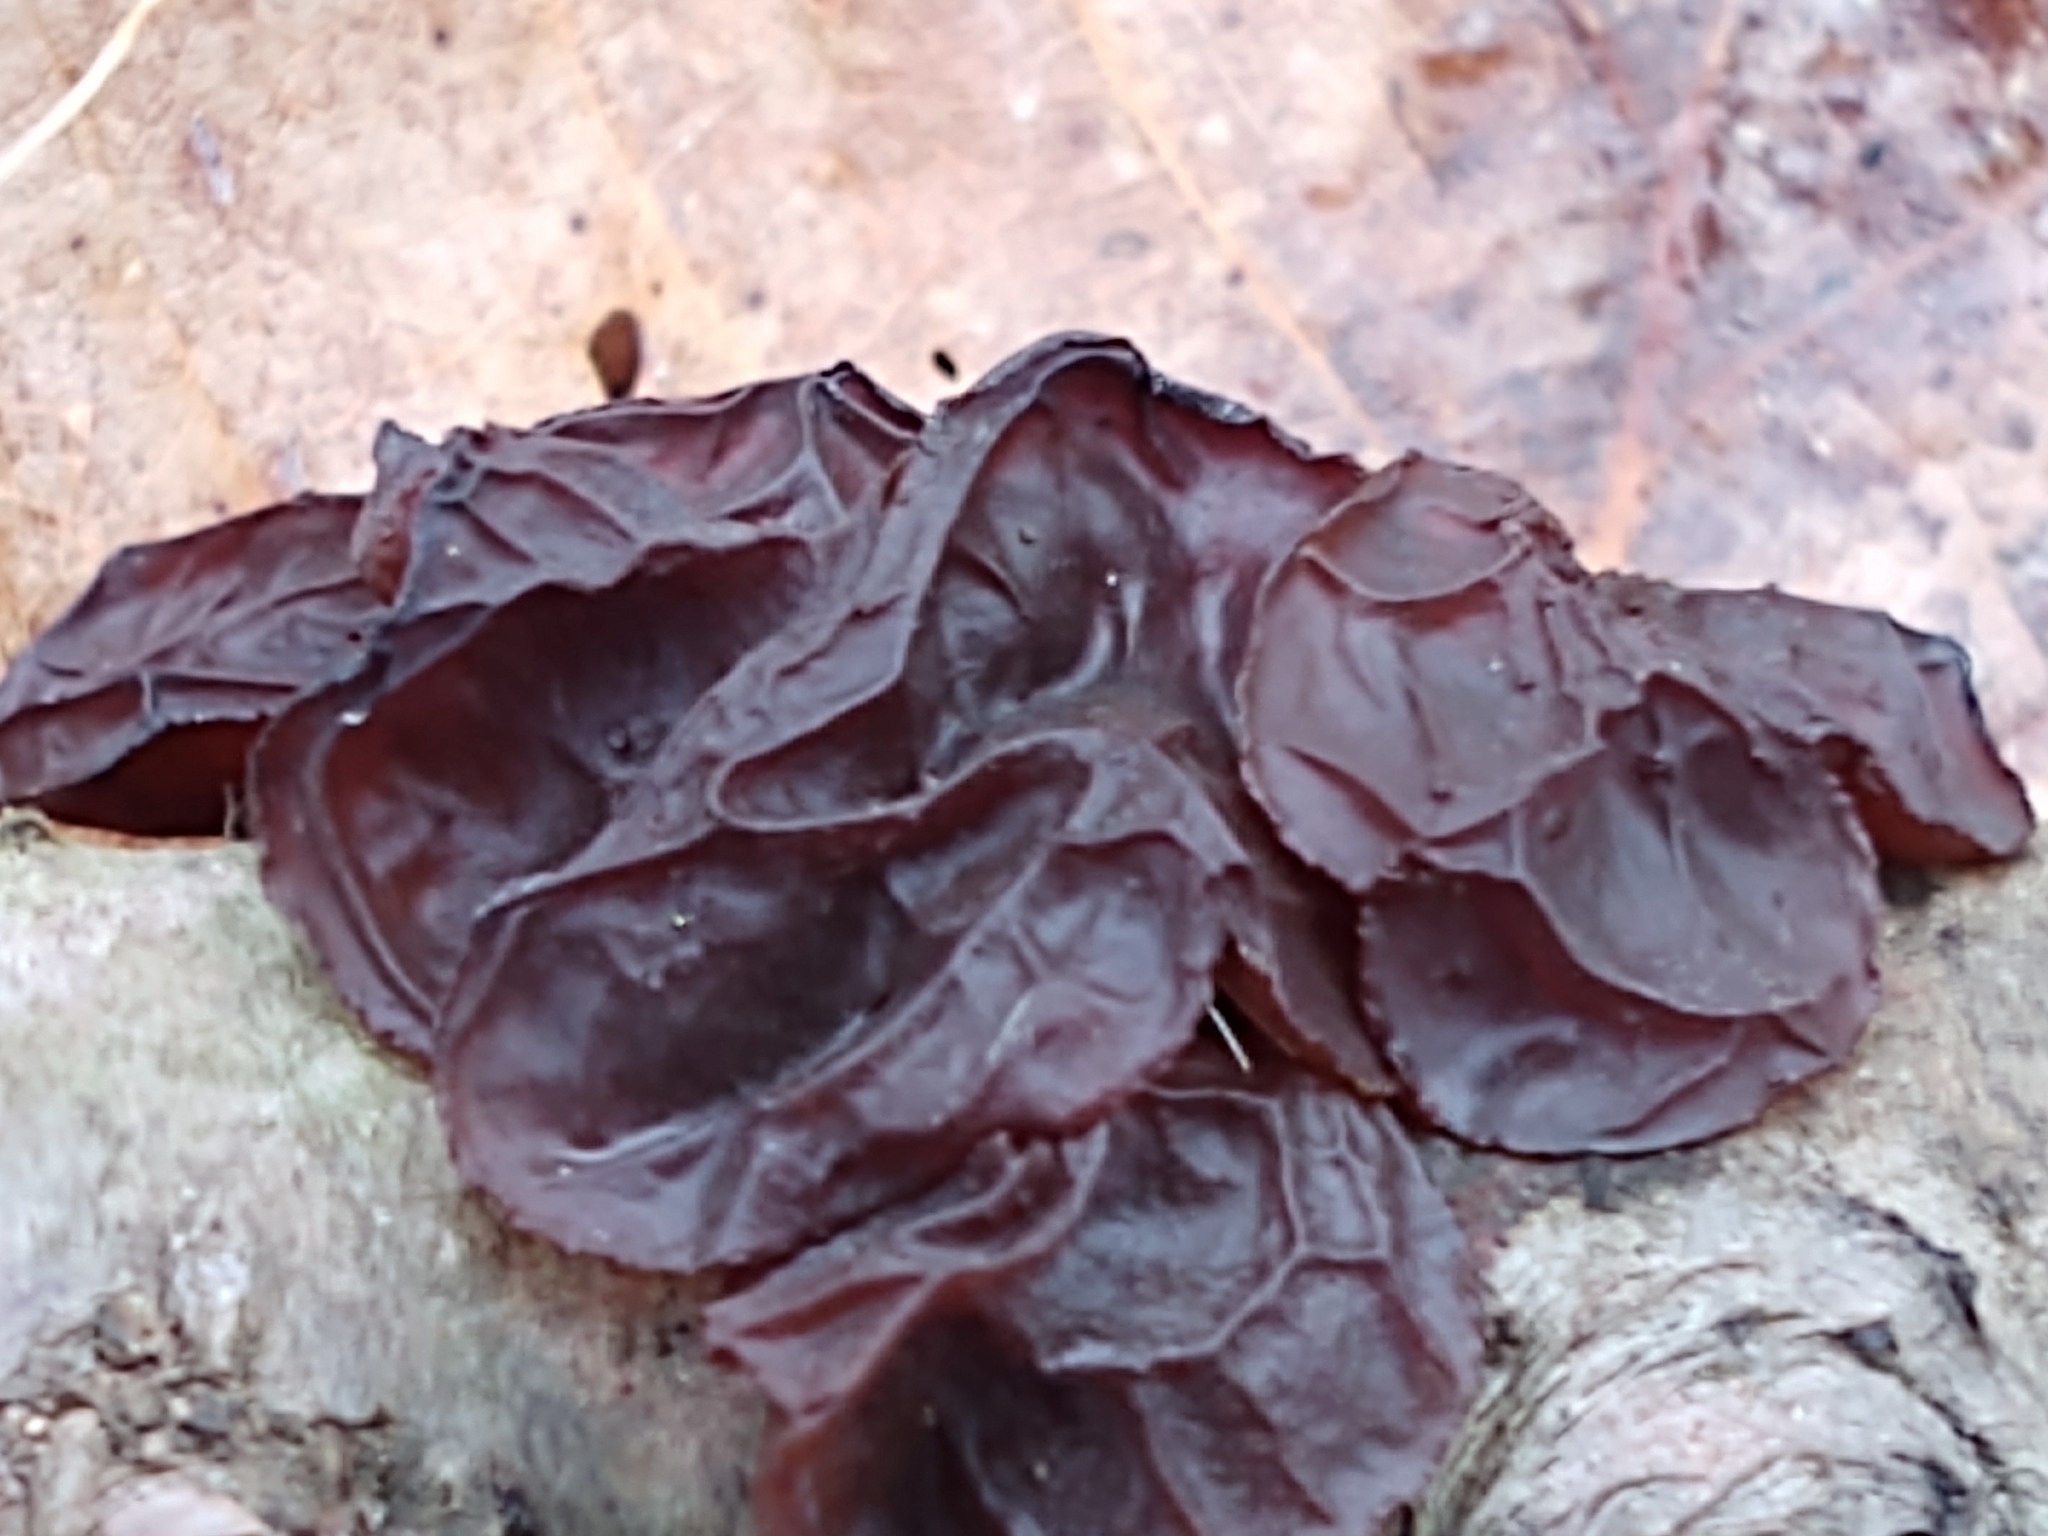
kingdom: Fungi
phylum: Basidiomycota
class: Agaricomycetes
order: Auriculariales
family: Auriculariaceae
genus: Exidia
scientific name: Exidia
